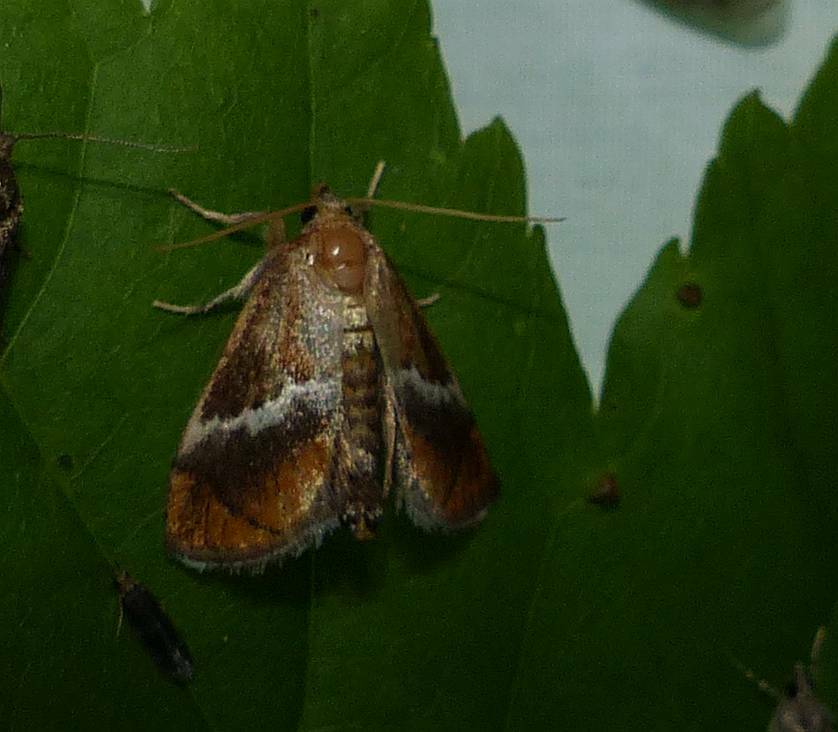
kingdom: Animalia
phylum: Arthropoda
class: Insecta
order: Lepidoptera
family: Limacodidae
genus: Lithacodes
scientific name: Lithacodes fasciola
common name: Yellow-shouldered slug moth
